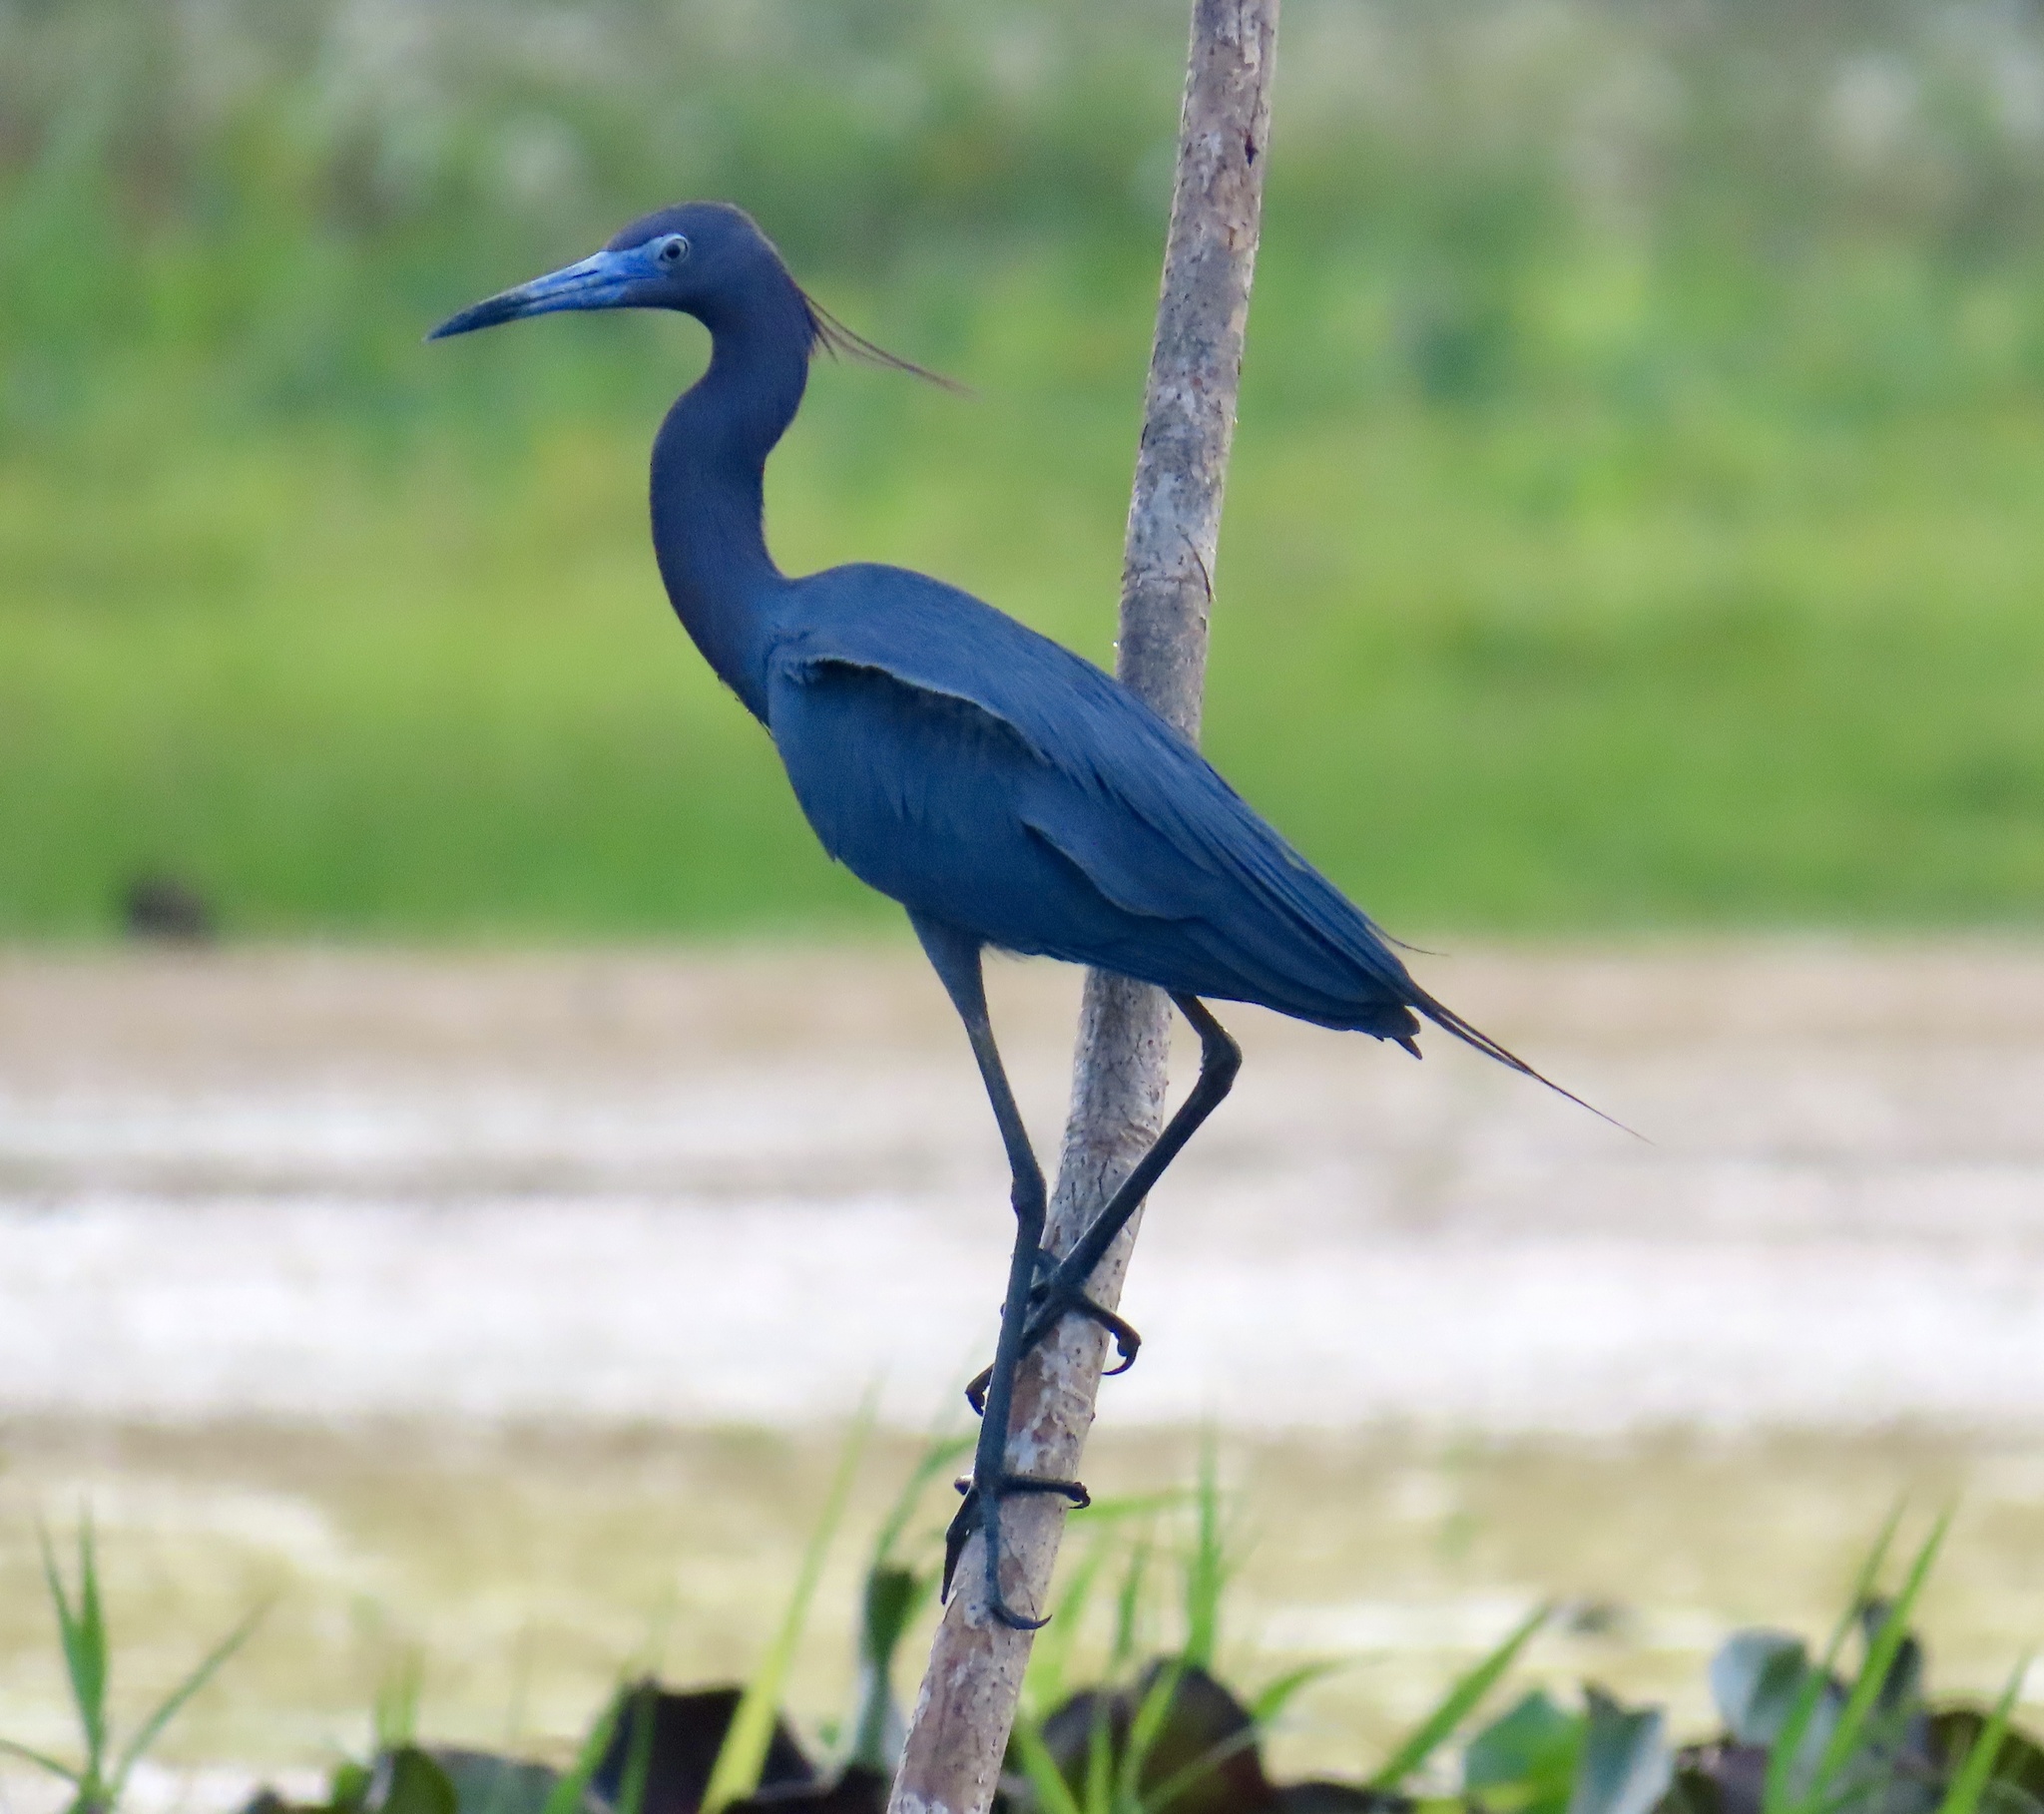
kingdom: Animalia
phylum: Chordata
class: Aves
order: Pelecaniformes
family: Ardeidae
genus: Egretta
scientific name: Egretta caerulea
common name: Little blue heron
